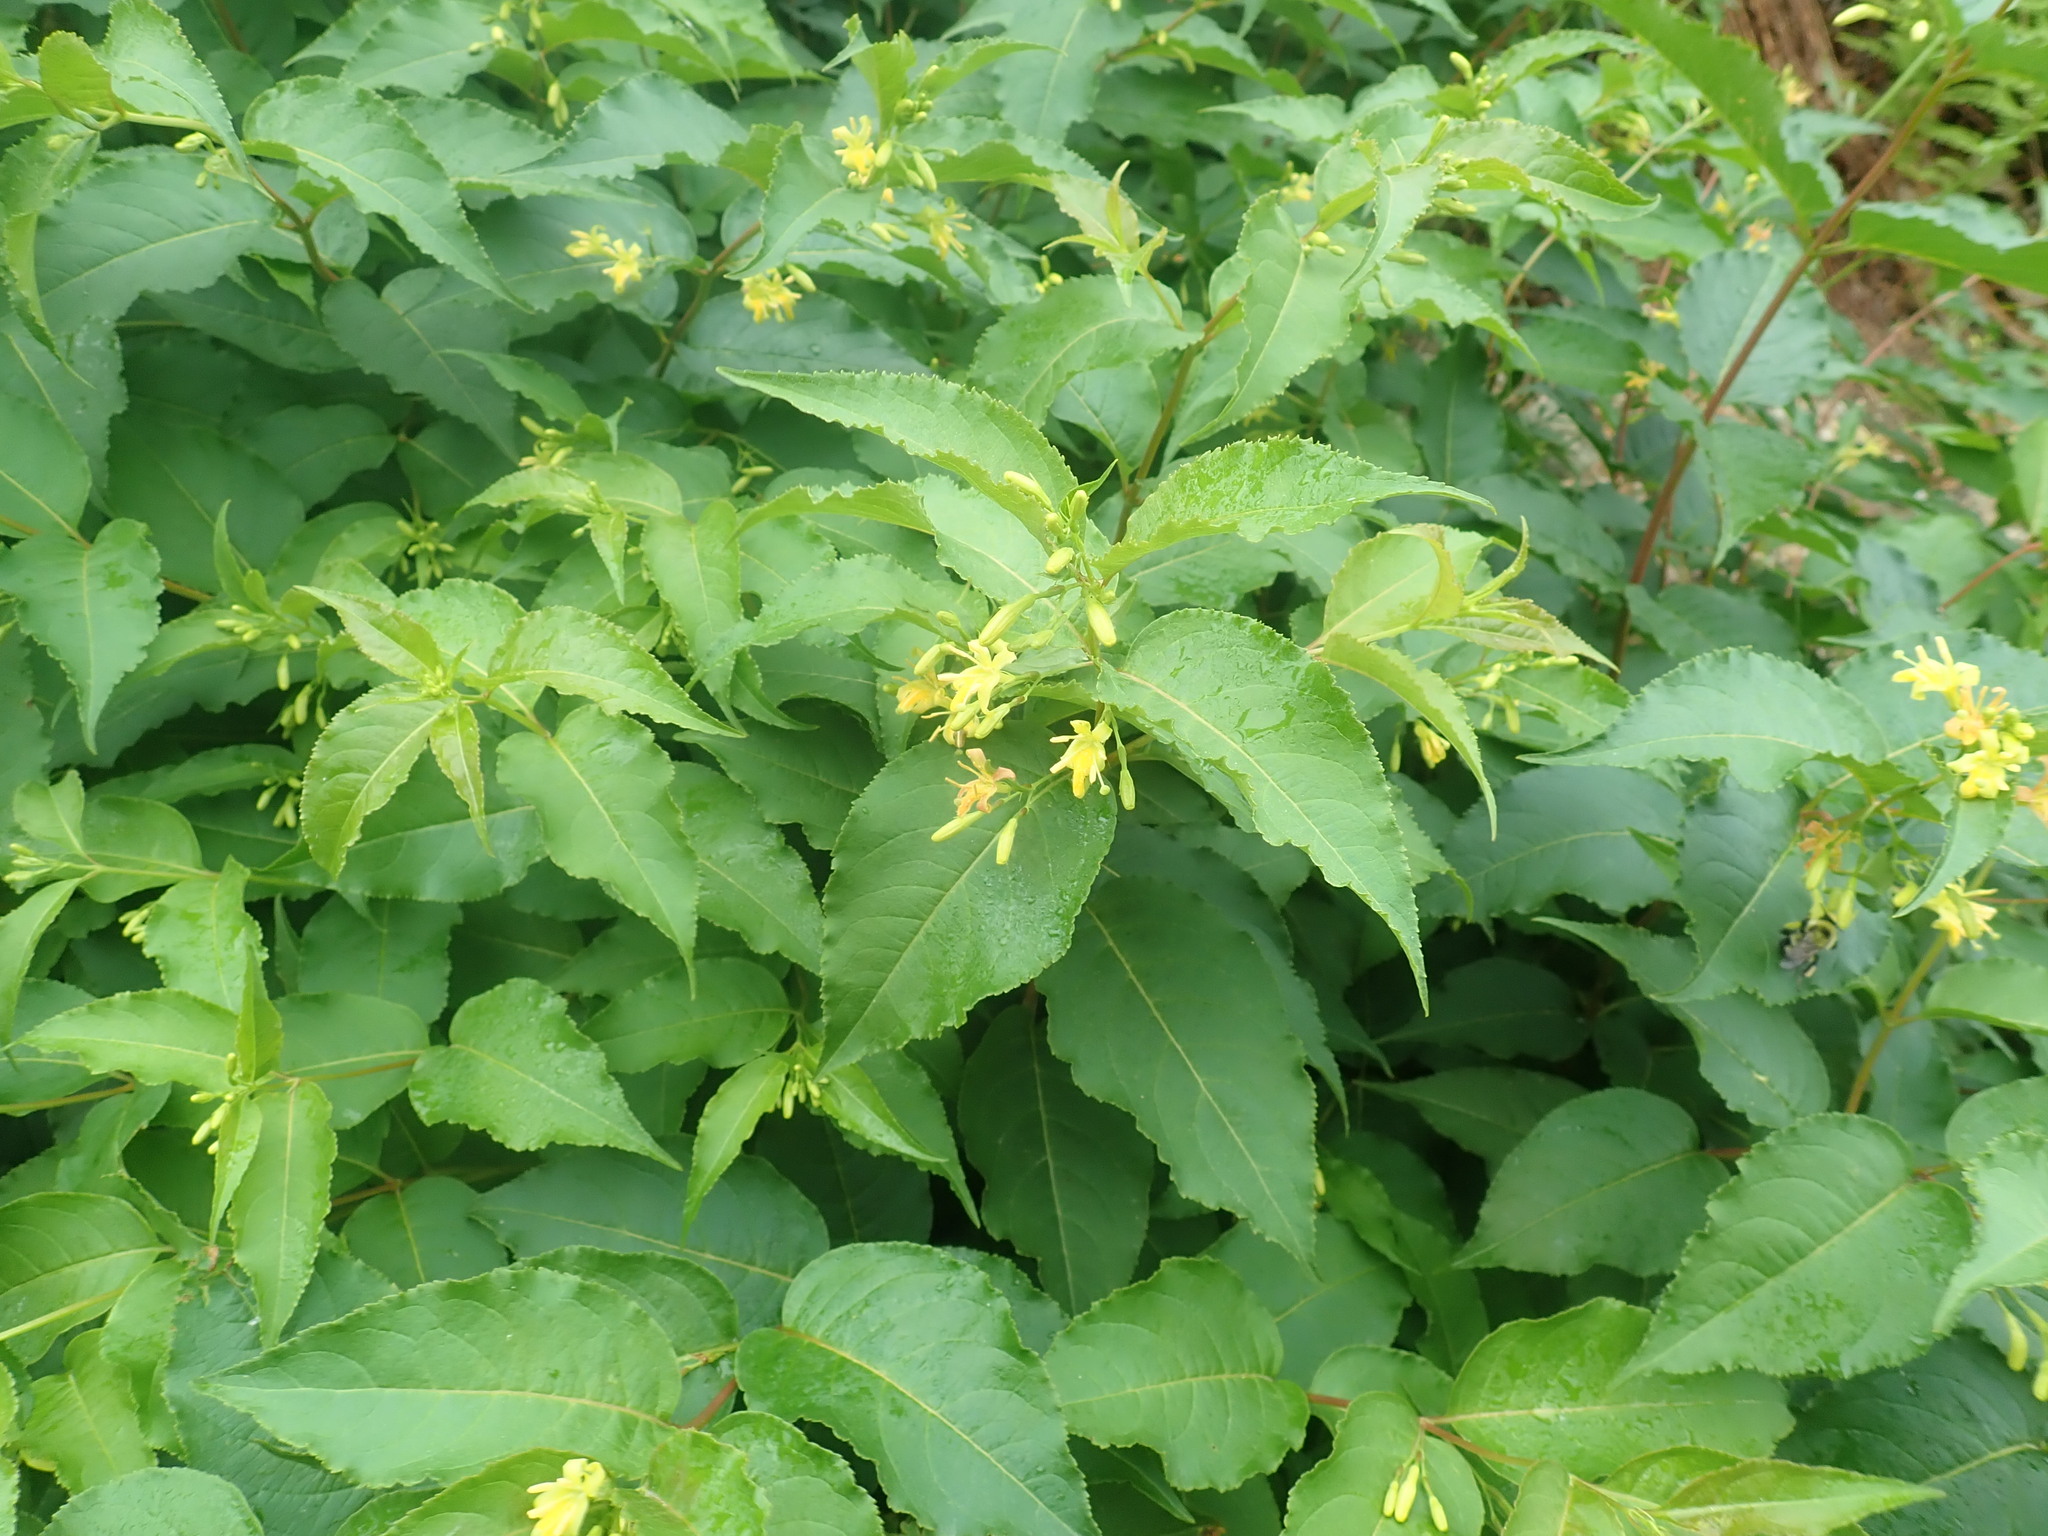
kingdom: Plantae
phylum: Tracheophyta
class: Magnoliopsida
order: Dipsacales
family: Caprifoliaceae
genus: Diervilla
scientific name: Diervilla lonicera
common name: Bush-honeysuckle
